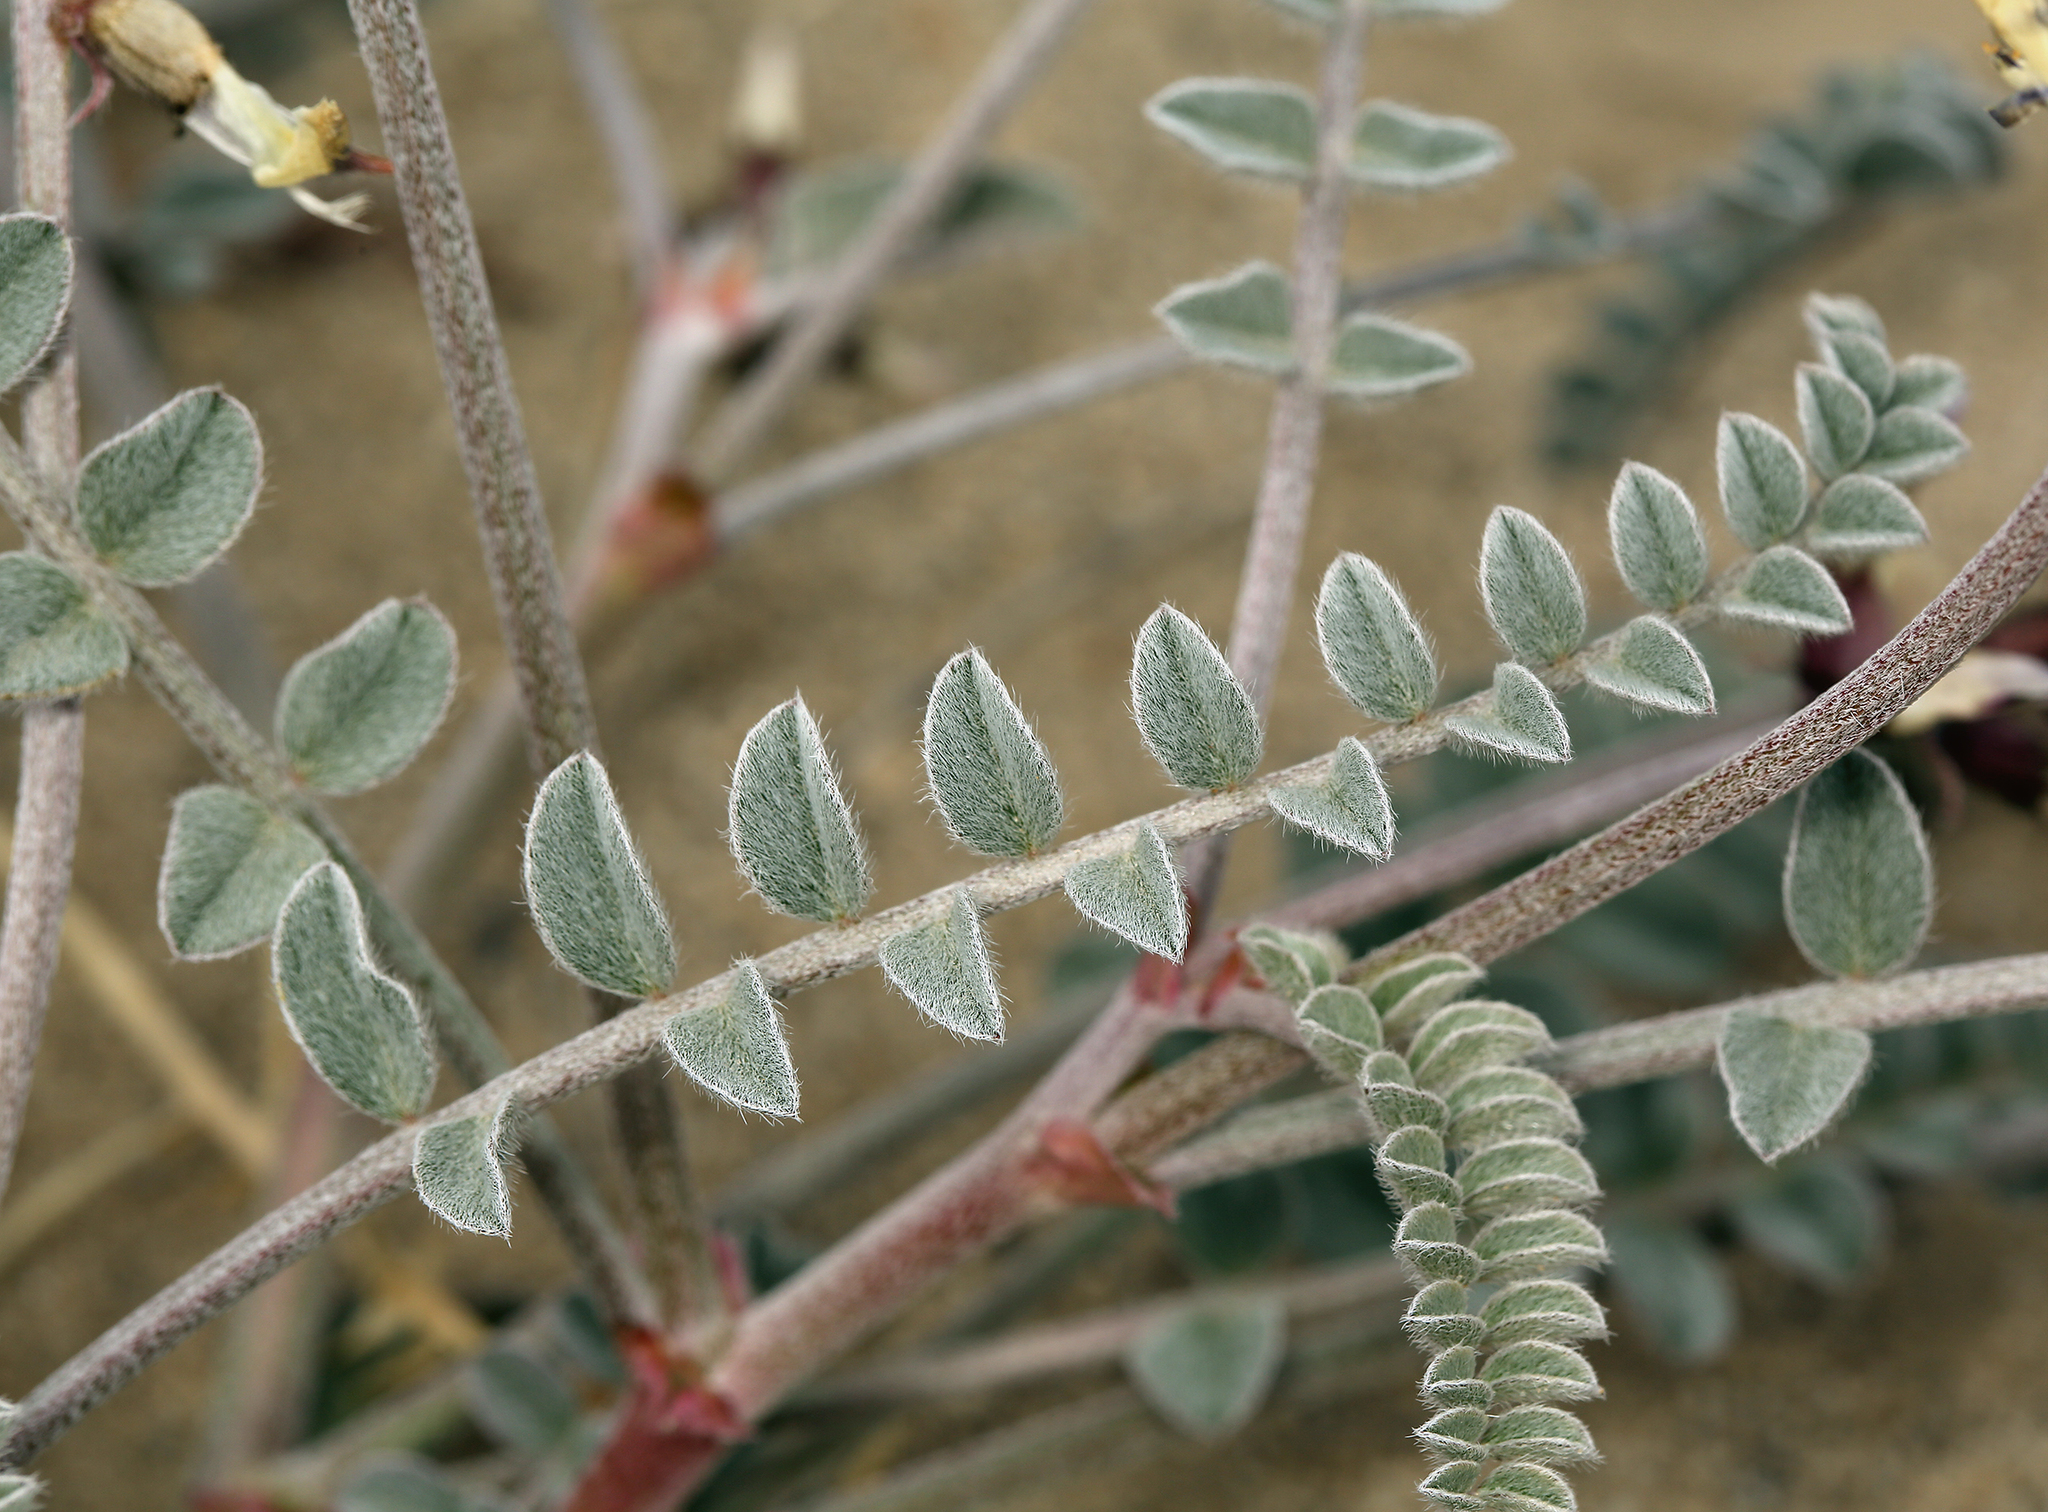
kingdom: Plantae
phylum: Tracheophyta
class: Magnoliopsida
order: Fabales
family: Fabaceae
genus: Astragalus
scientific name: Astragalus layneae
